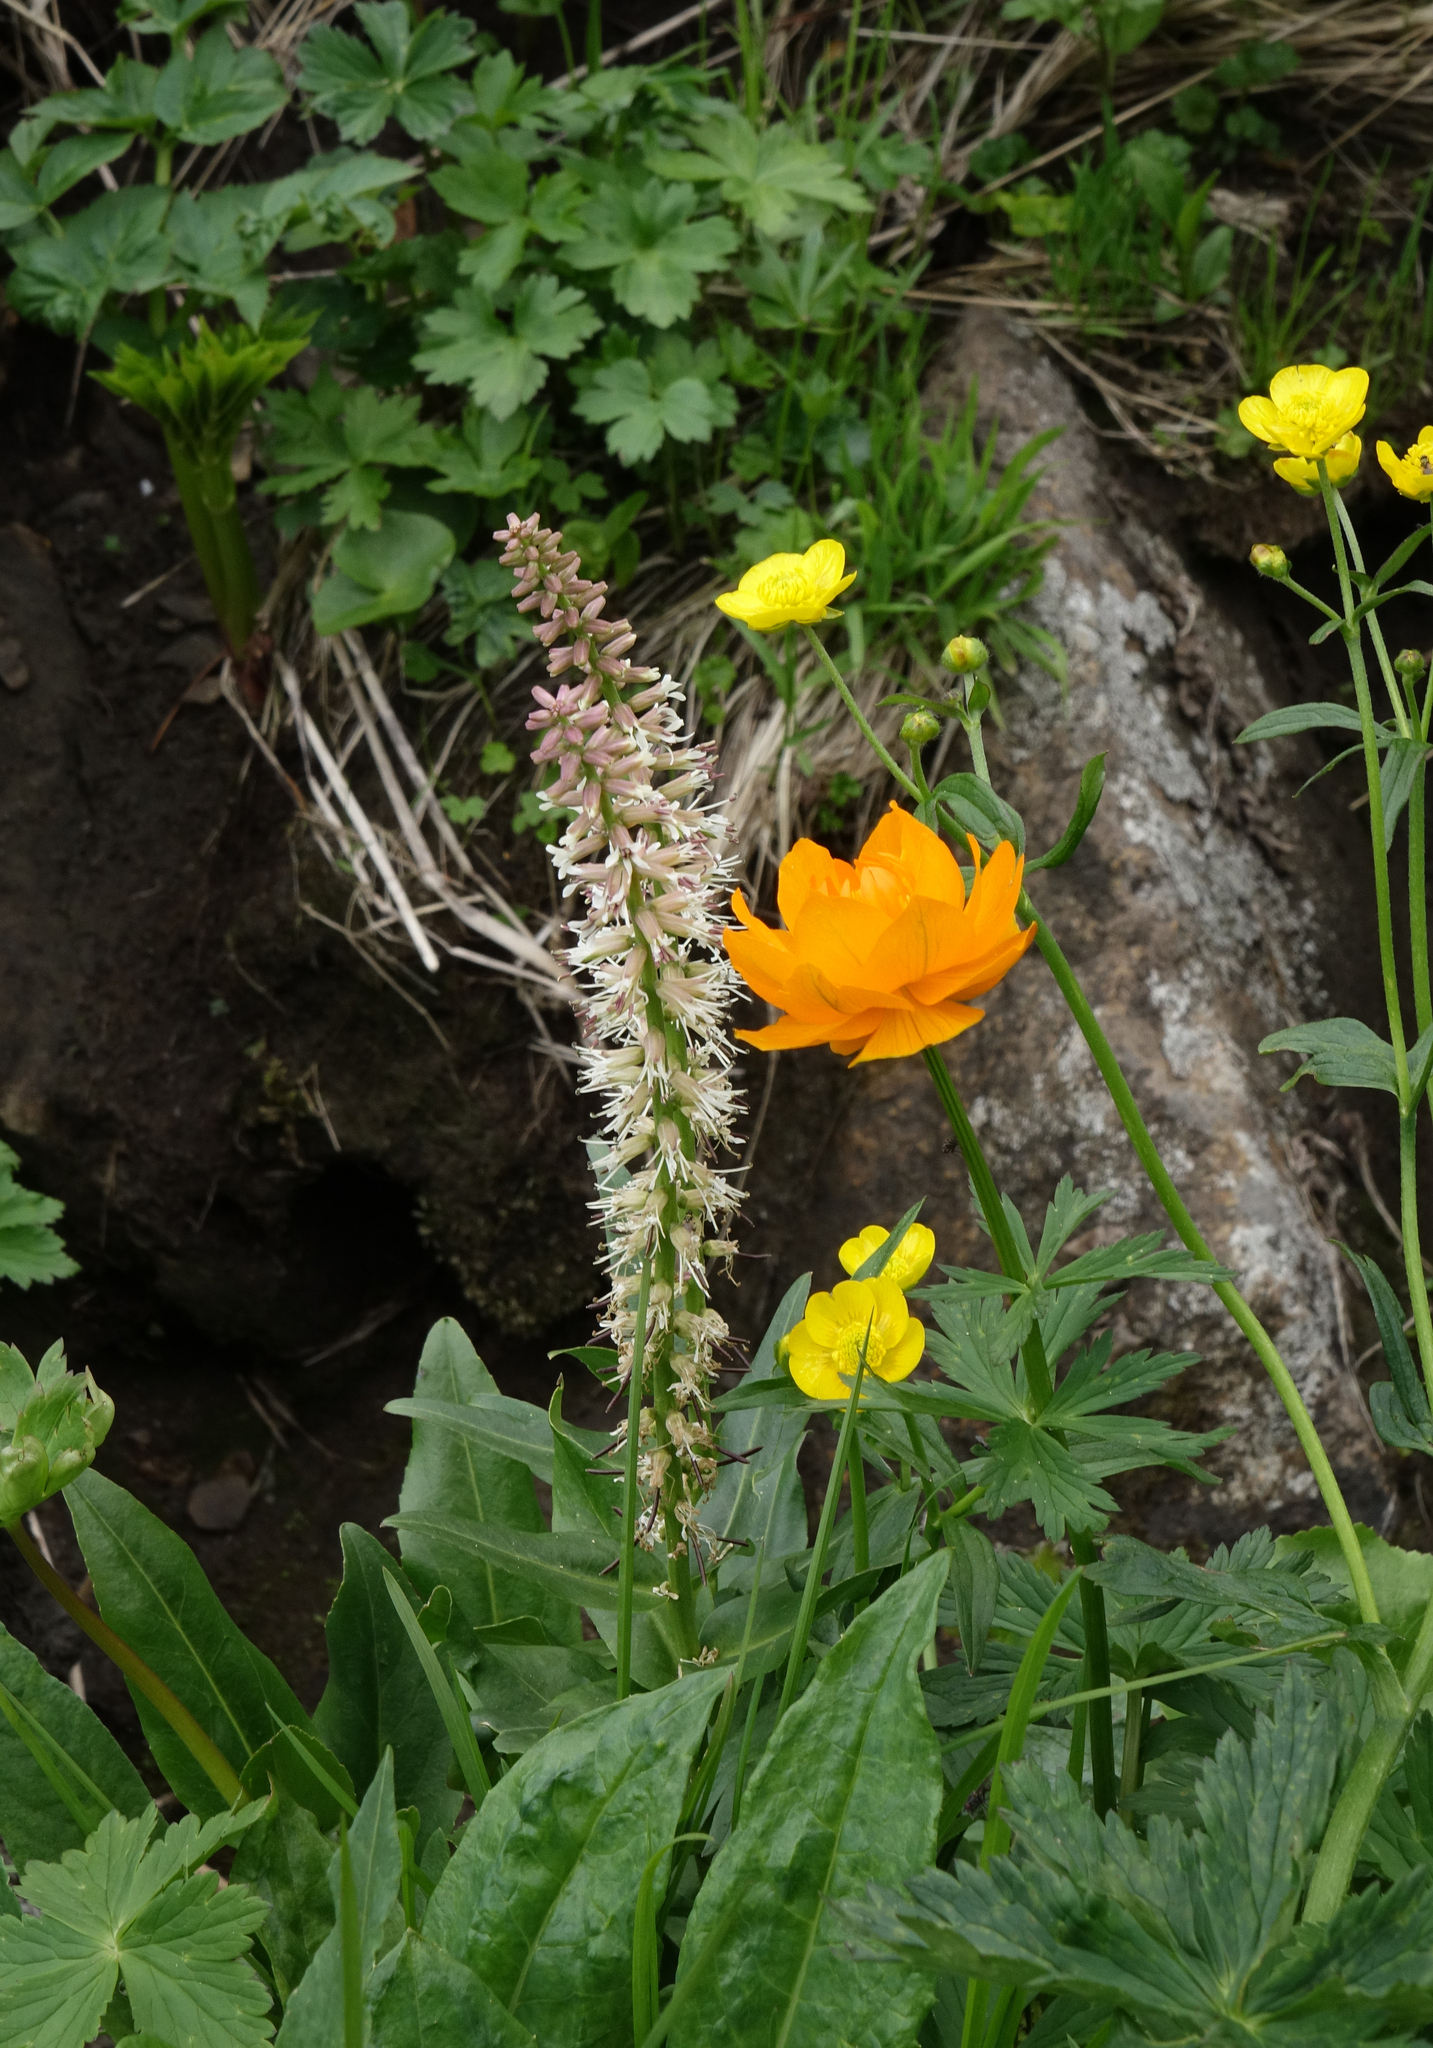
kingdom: Plantae
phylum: Tracheophyta
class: Magnoliopsida
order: Brassicales
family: Brassicaceae
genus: Macropodium
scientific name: Macropodium nivale
